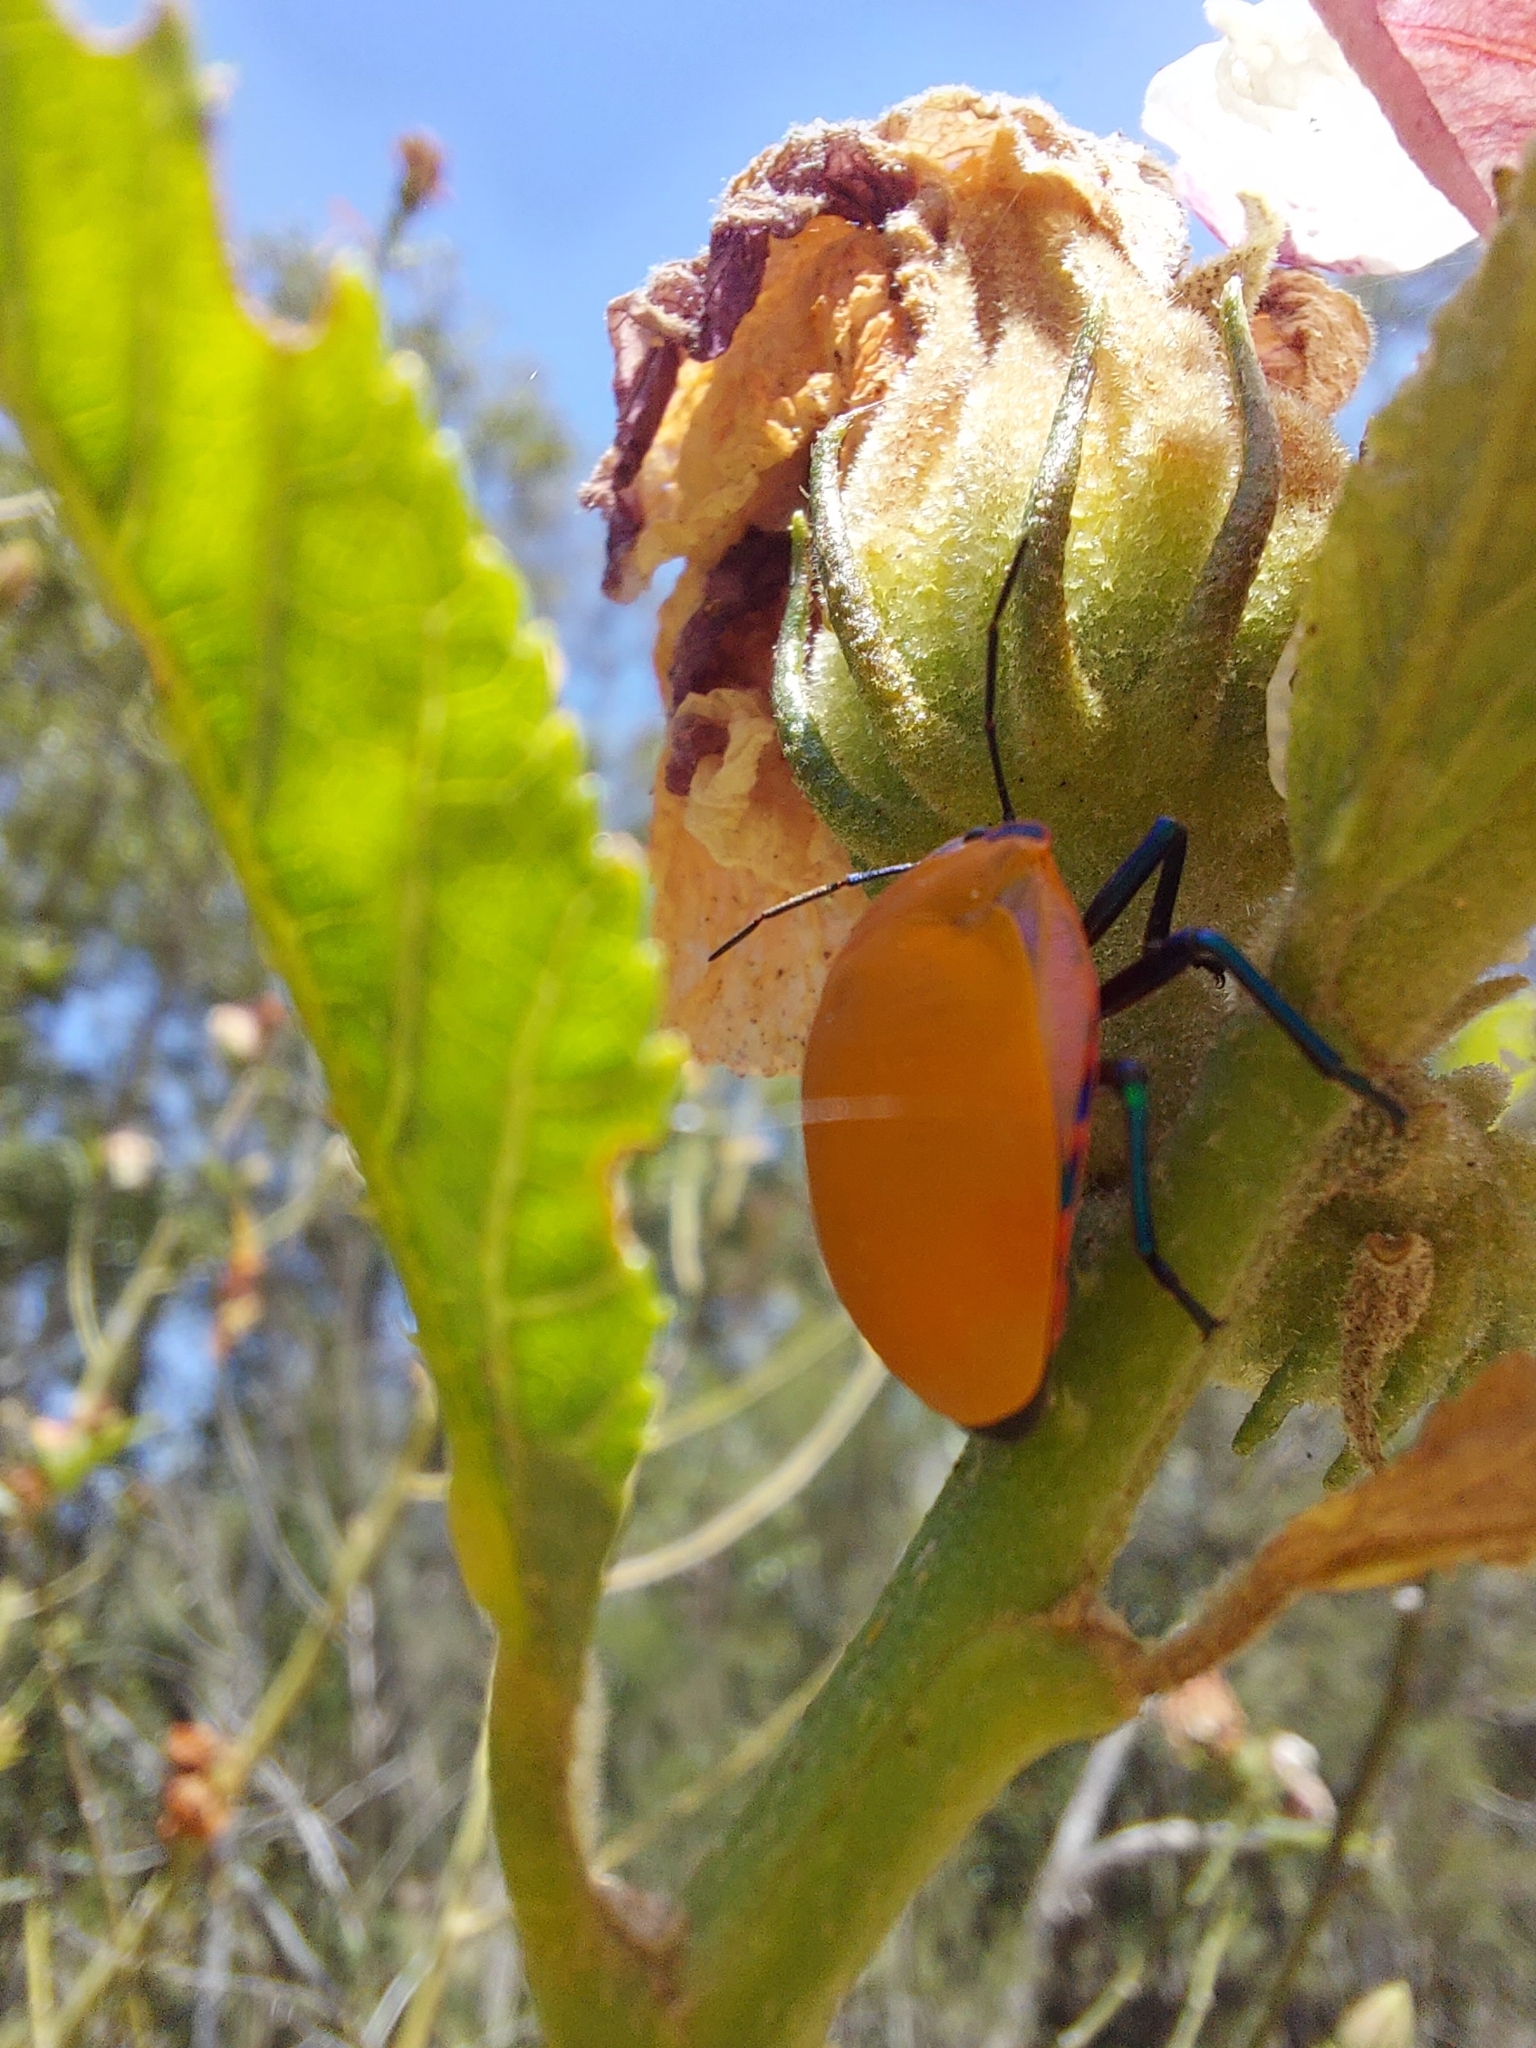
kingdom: Animalia
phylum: Arthropoda
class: Insecta
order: Hemiptera
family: Scutelleridae
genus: Tectocoris
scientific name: Tectocoris diophthalmus
